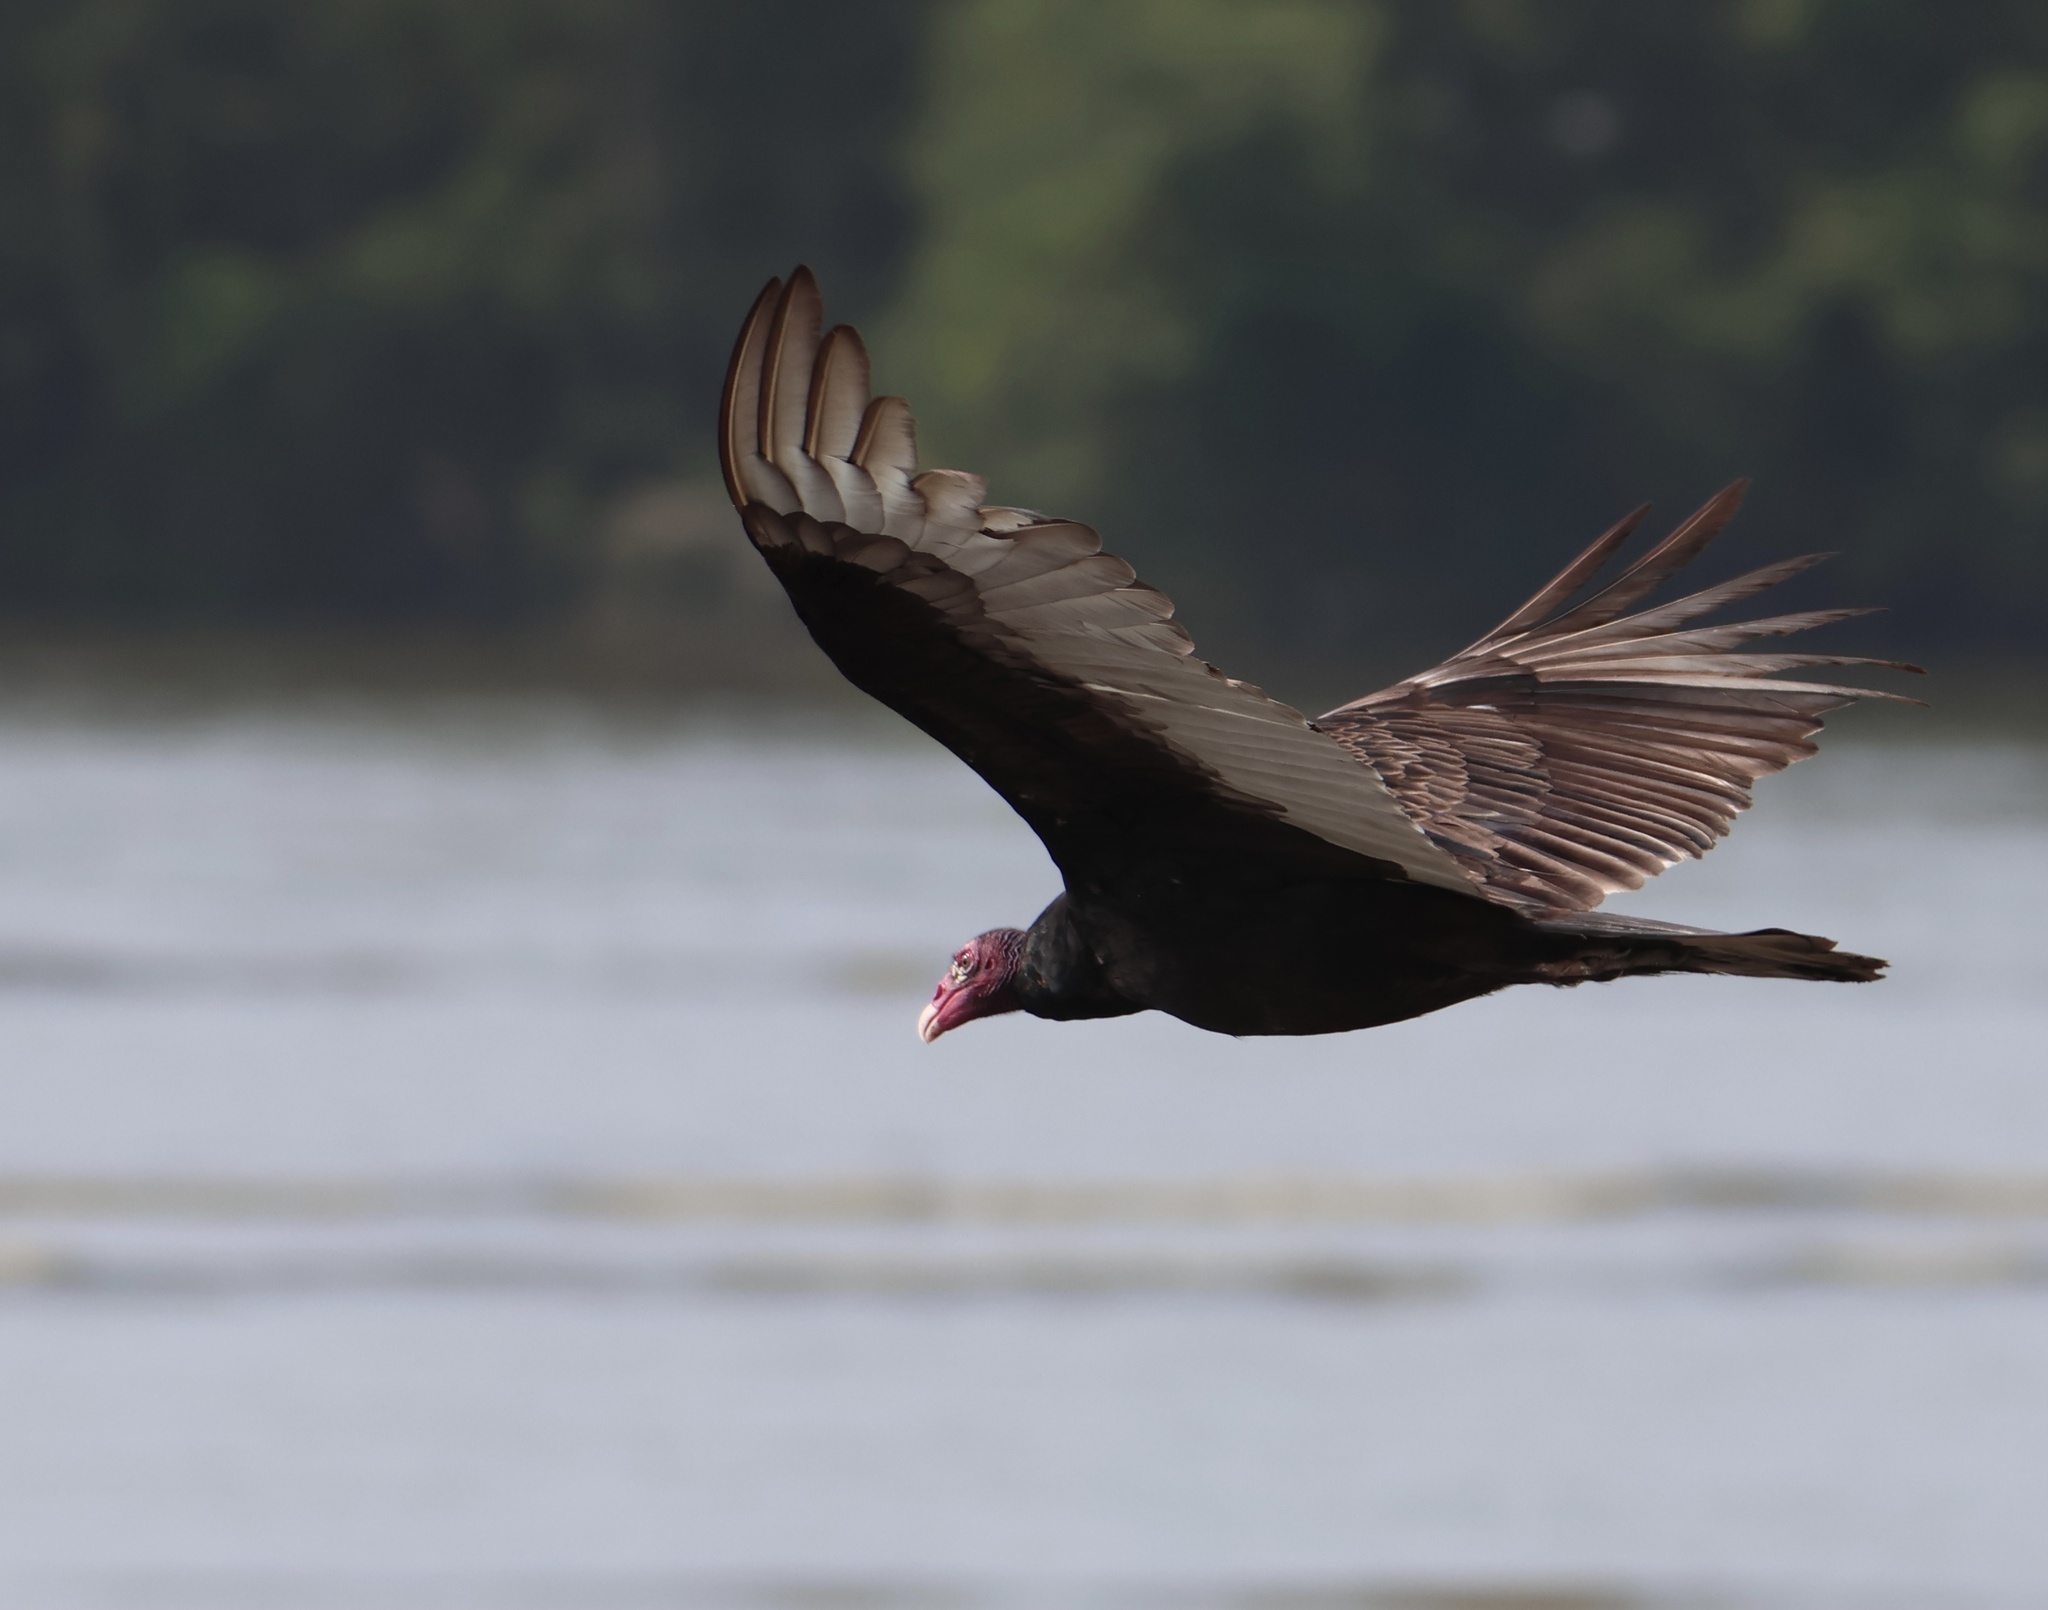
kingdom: Animalia
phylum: Chordata
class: Aves
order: Accipitriformes
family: Cathartidae
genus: Cathartes
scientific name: Cathartes aura
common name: Turkey vulture
